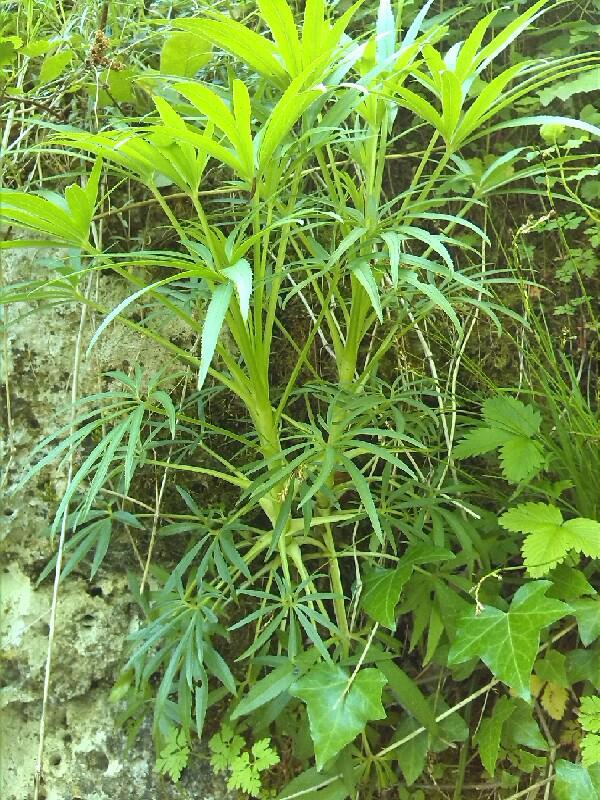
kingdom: Plantae
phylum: Tracheophyta
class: Magnoliopsida
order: Ranunculales
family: Ranunculaceae
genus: Helleborus
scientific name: Helleborus foetidus
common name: Stinking hellebore
